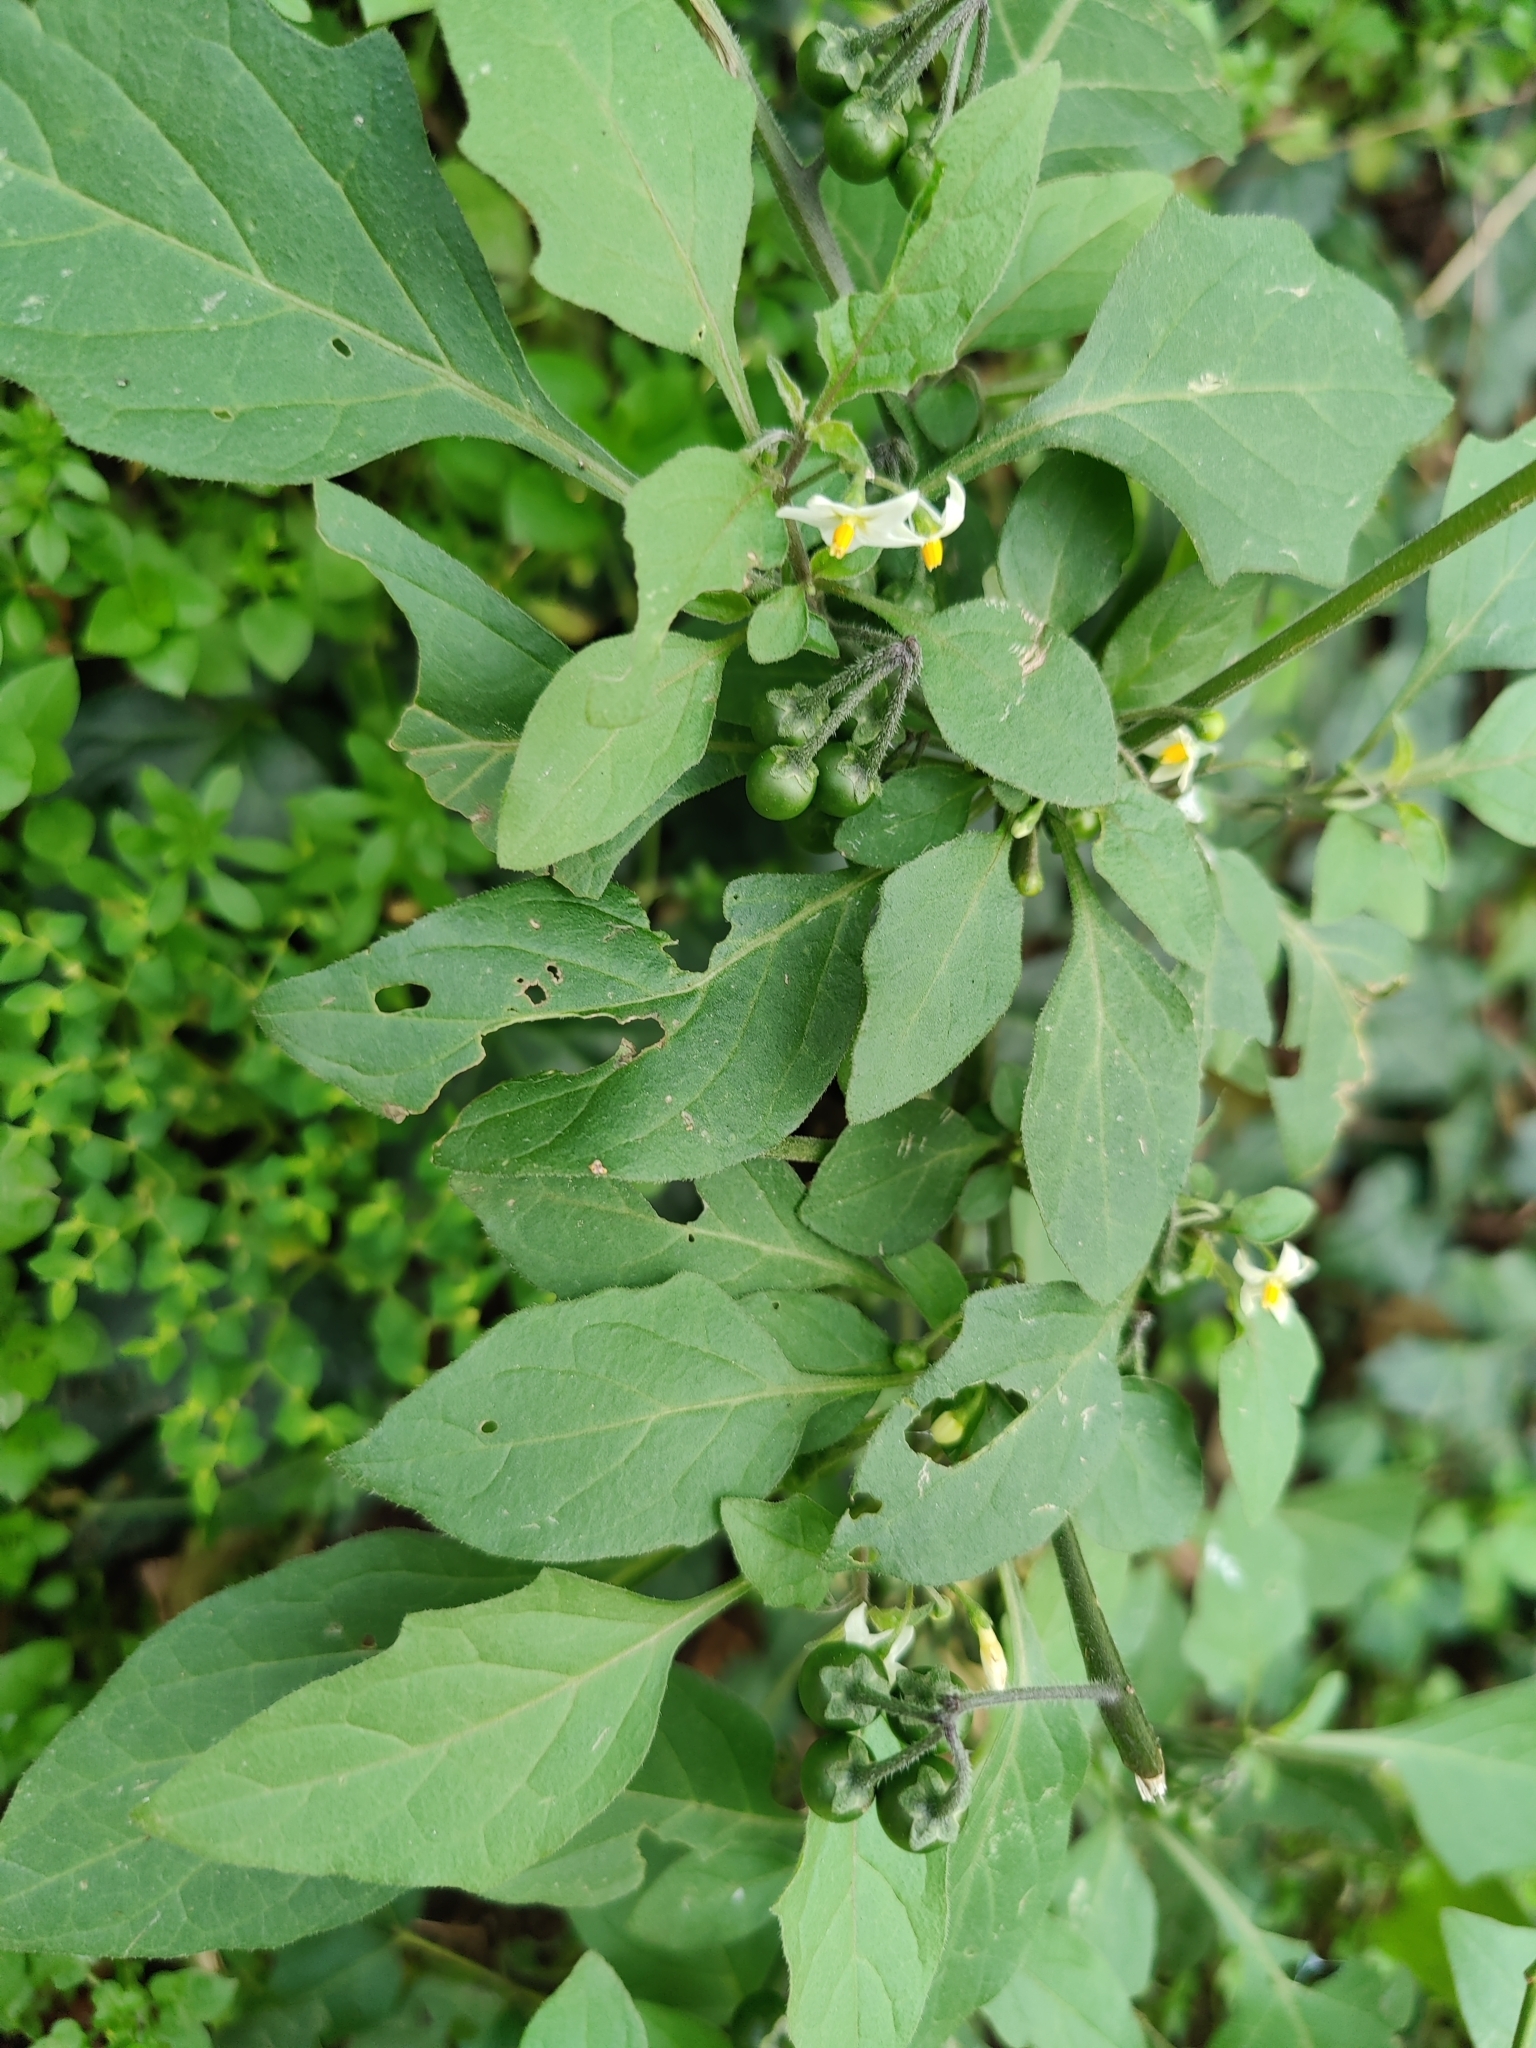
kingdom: Plantae
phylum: Tracheophyta
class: Magnoliopsida
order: Solanales
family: Solanaceae
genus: Solanum
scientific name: Solanum nigrum
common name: Black nightshade
